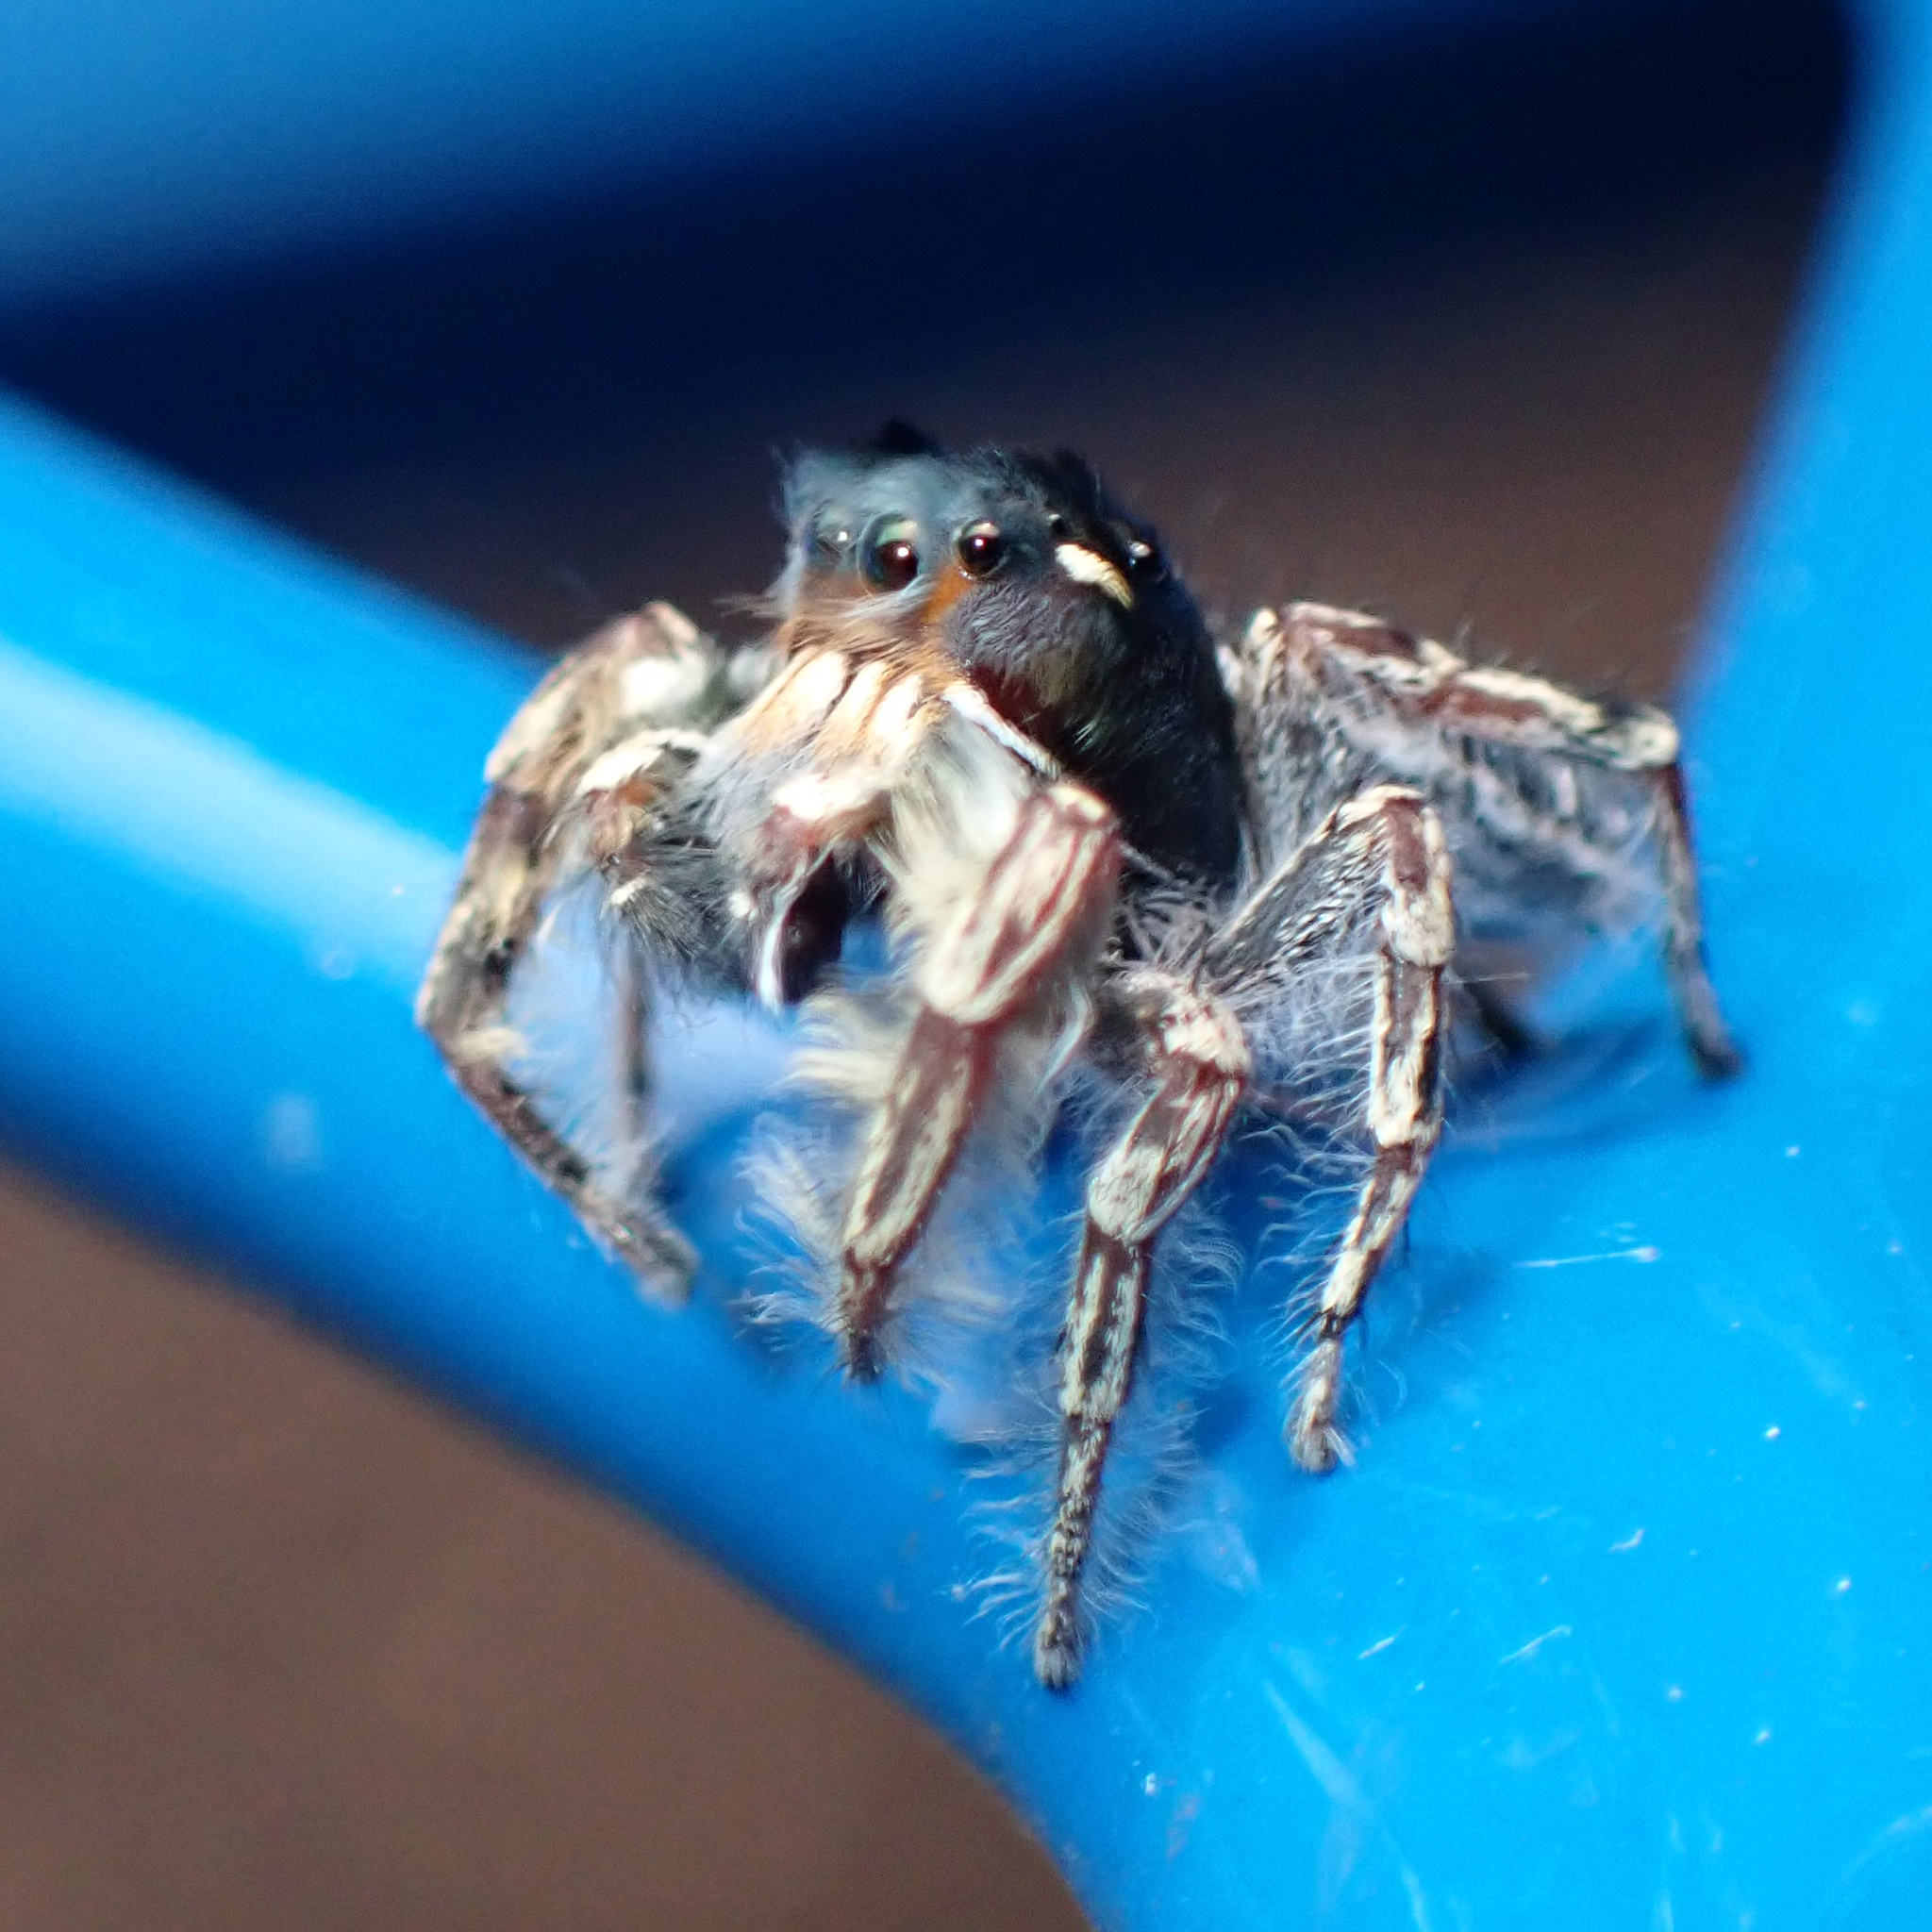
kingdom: Animalia
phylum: Arthropoda
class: Arachnida
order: Araneae
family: Salticidae
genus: Phidippus
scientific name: Phidippus putnami
